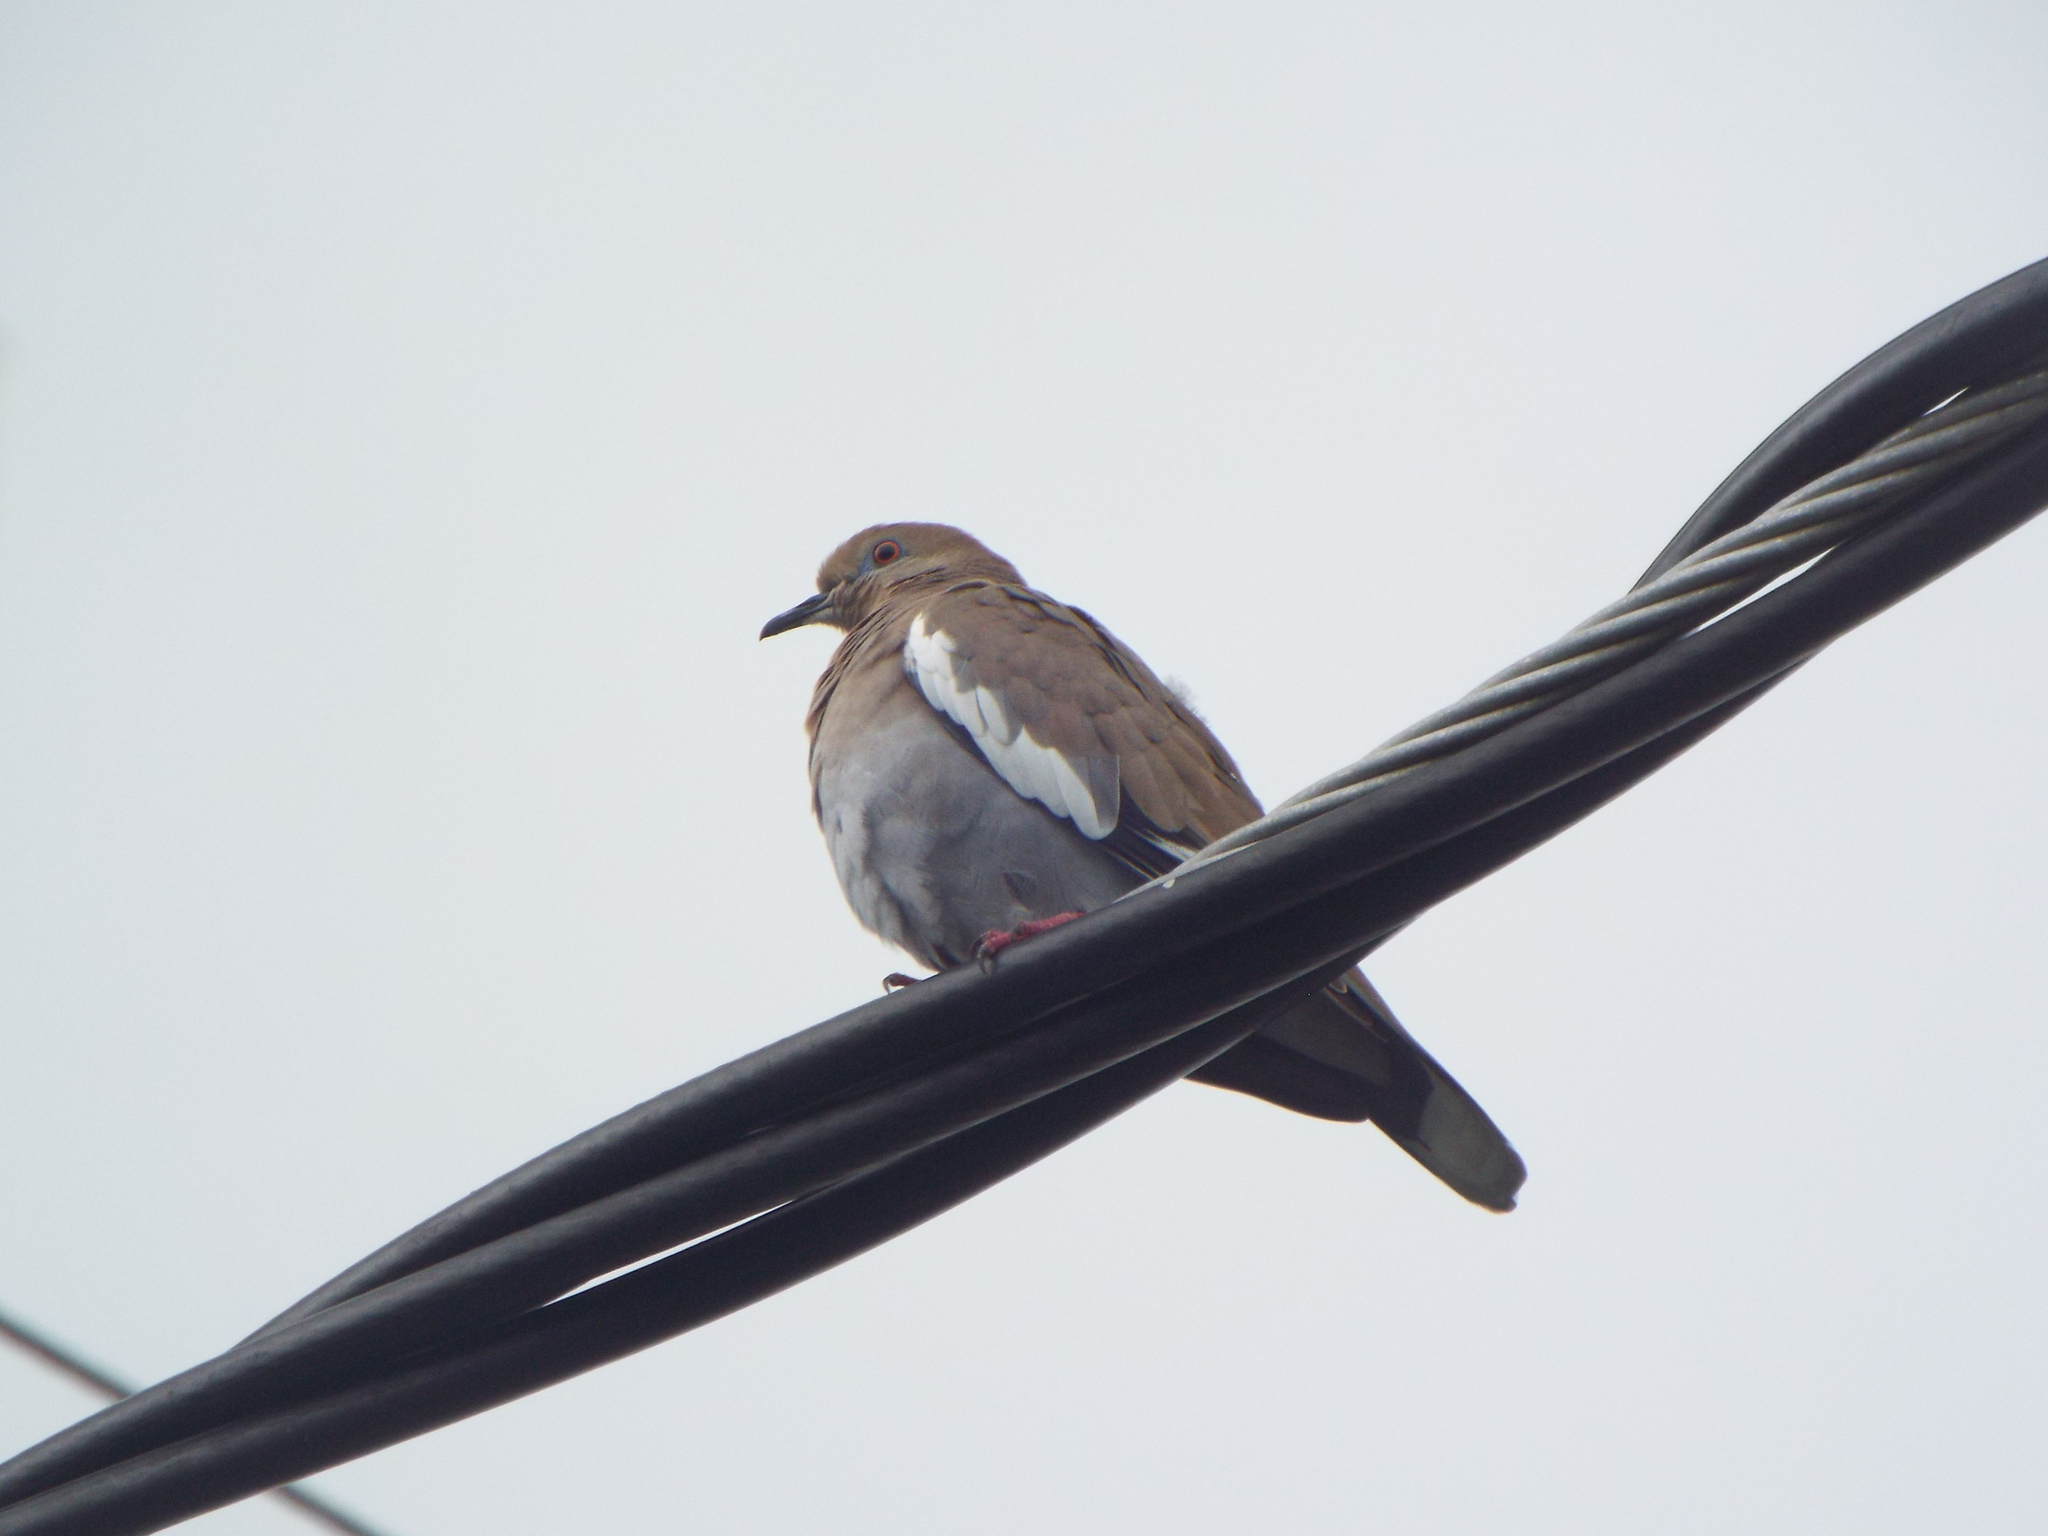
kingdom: Animalia
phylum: Chordata
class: Aves
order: Columbiformes
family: Columbidae
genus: Zenaida
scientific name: Zenaida asiatica
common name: White-winged dove
